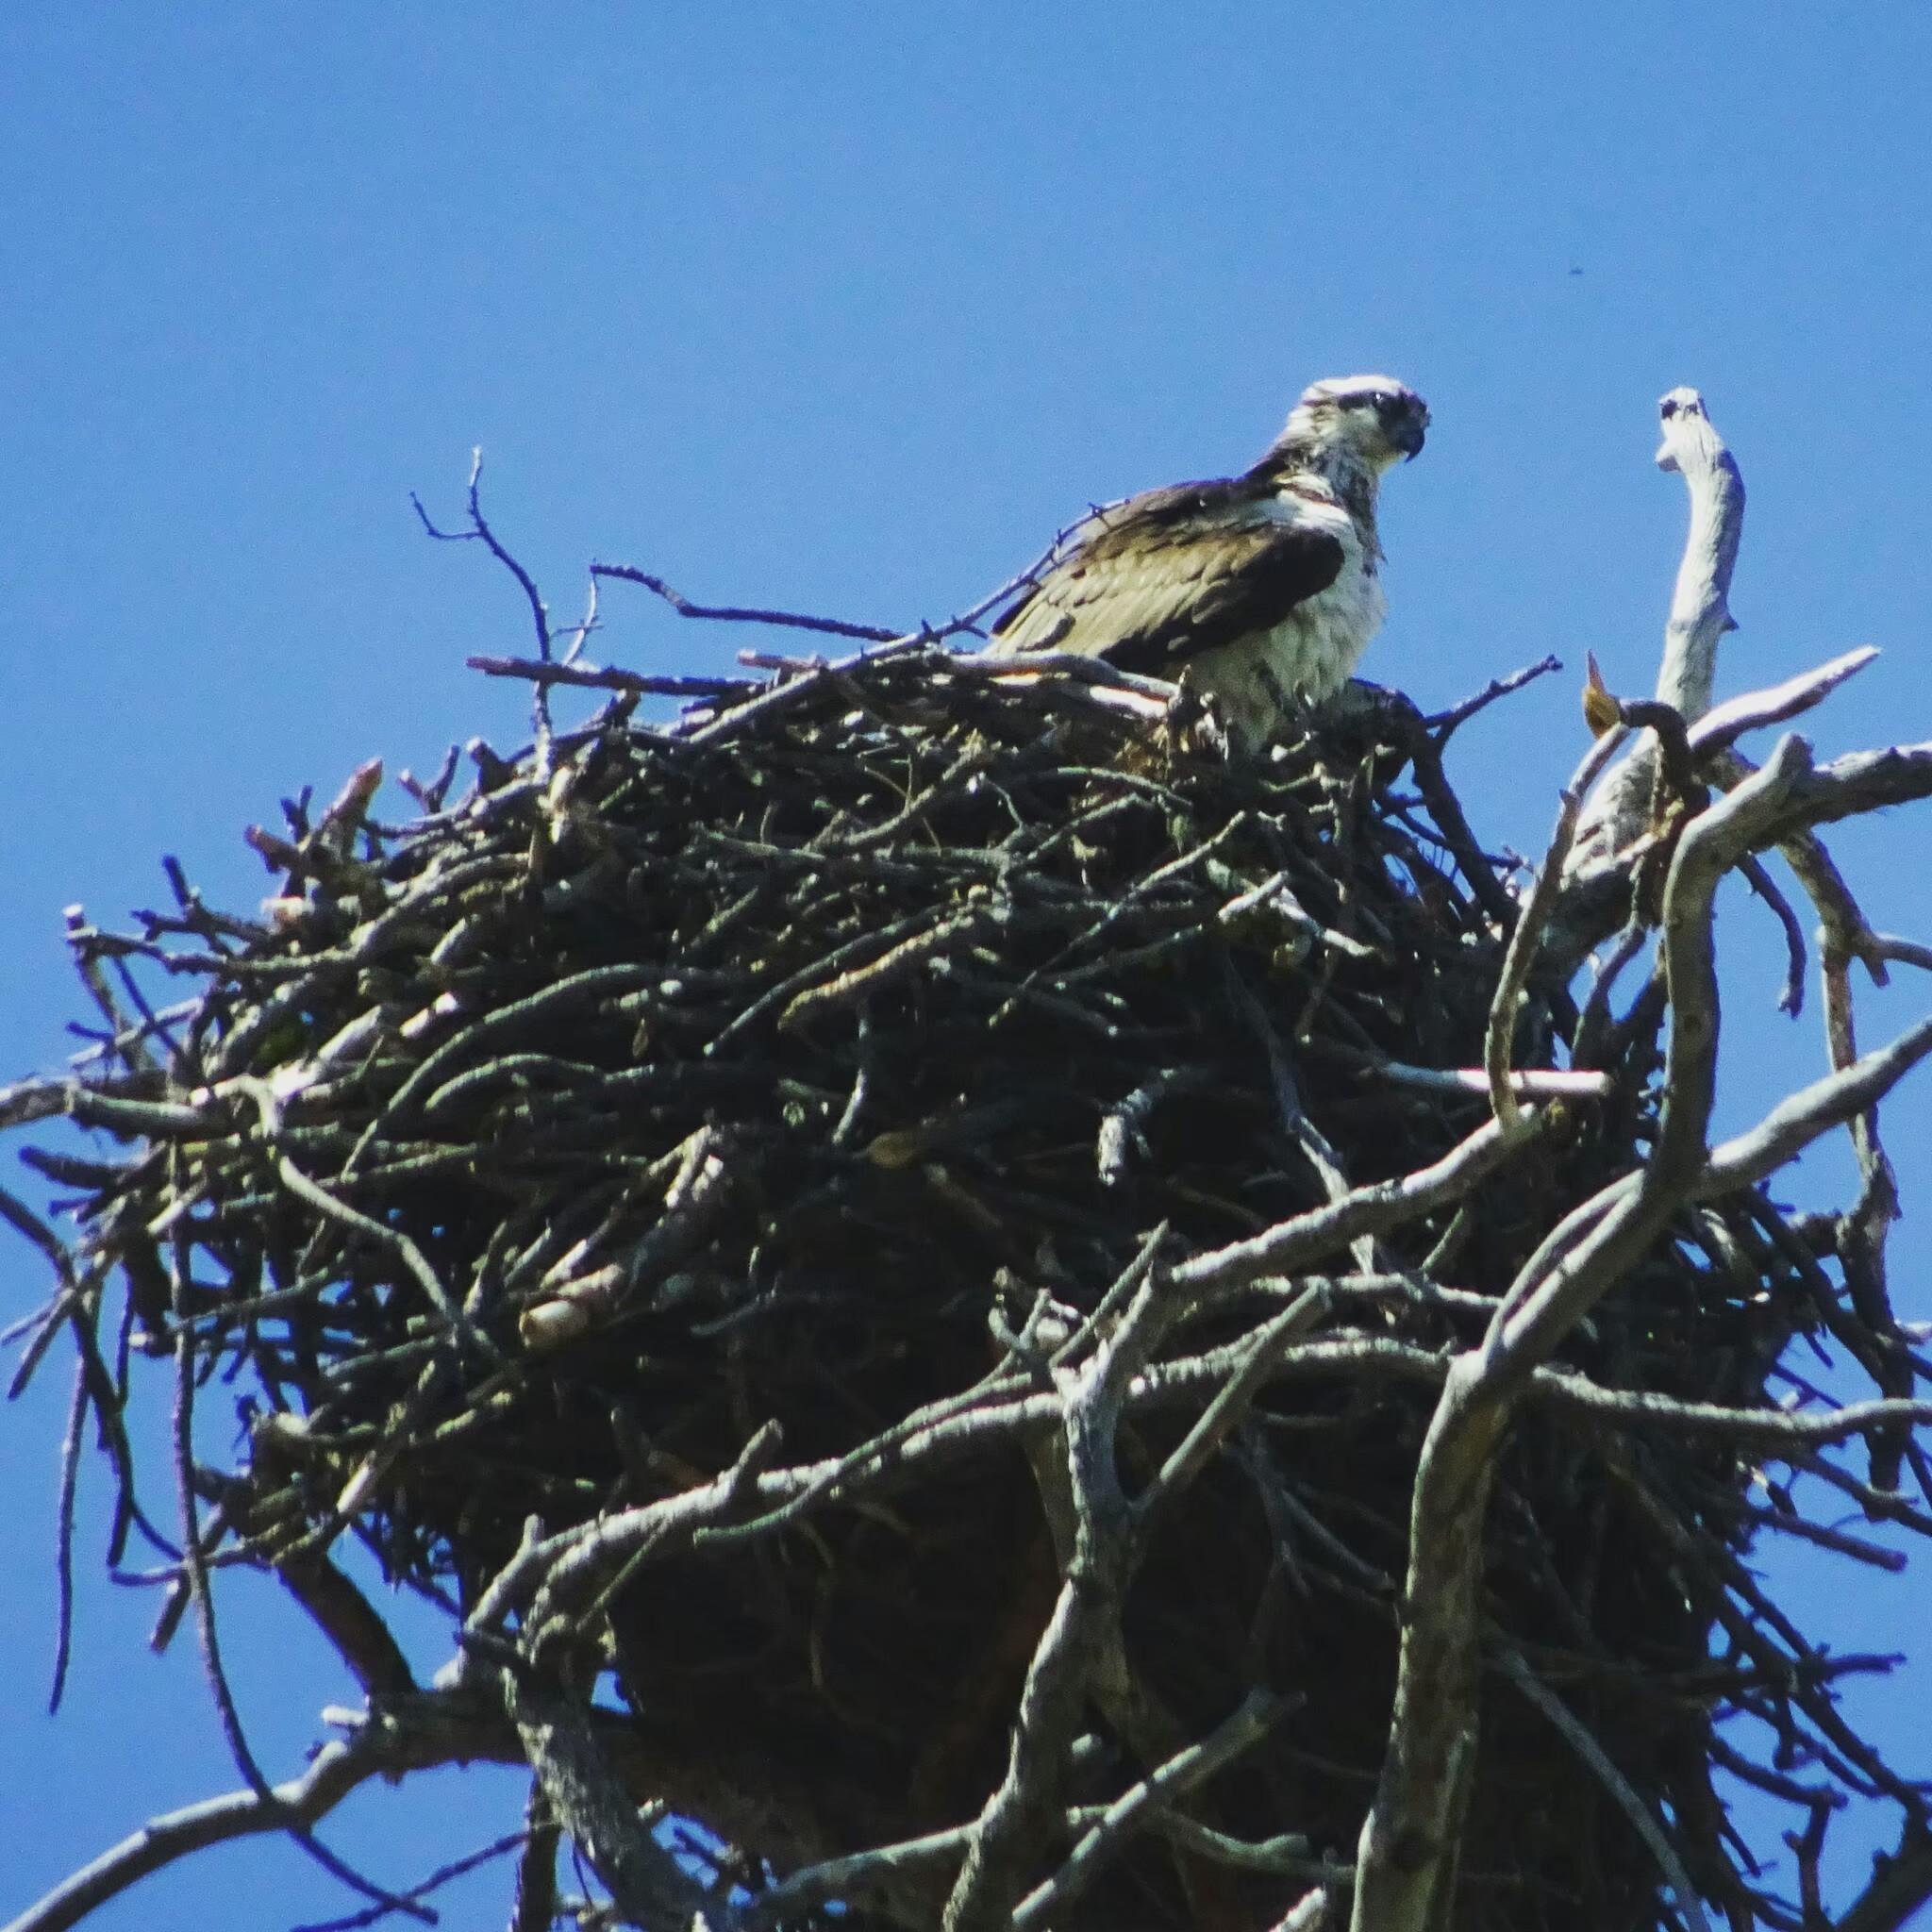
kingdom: Animalia
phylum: Chordata
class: Aves
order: Accipitriformes
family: Pandionidae
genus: Pandion
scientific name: Pandion haliaetus
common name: Osprey
